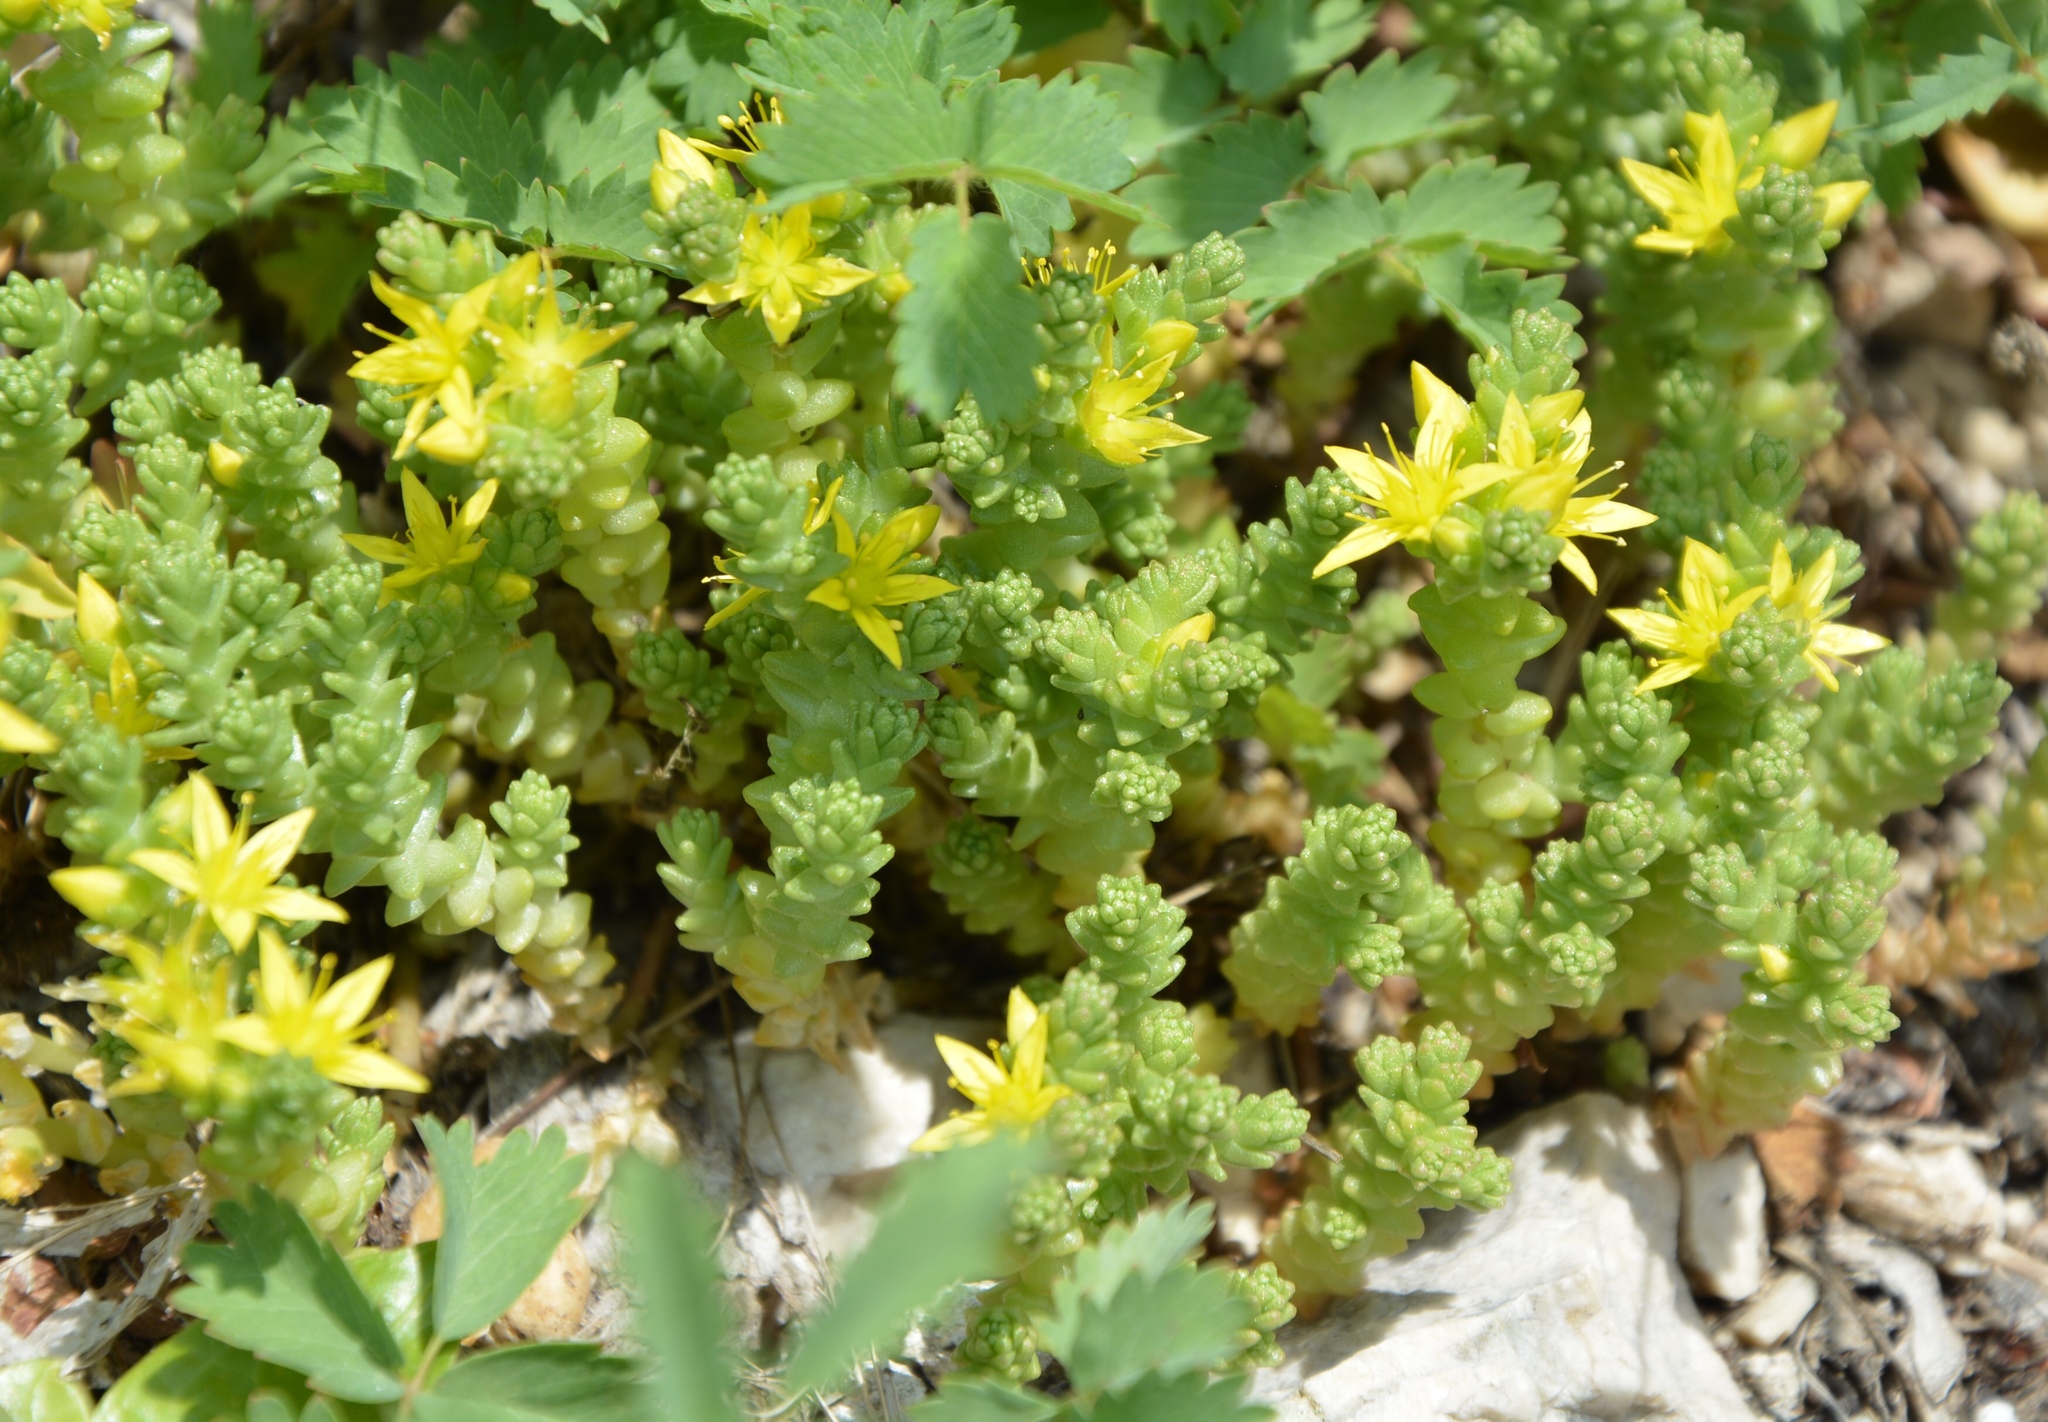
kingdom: Plantae
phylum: Tracheophyta
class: Magnoliopsida
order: Saxifragales
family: Crassulaceae
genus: Sedum
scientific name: Sedum acre
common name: Biting stonecrop
